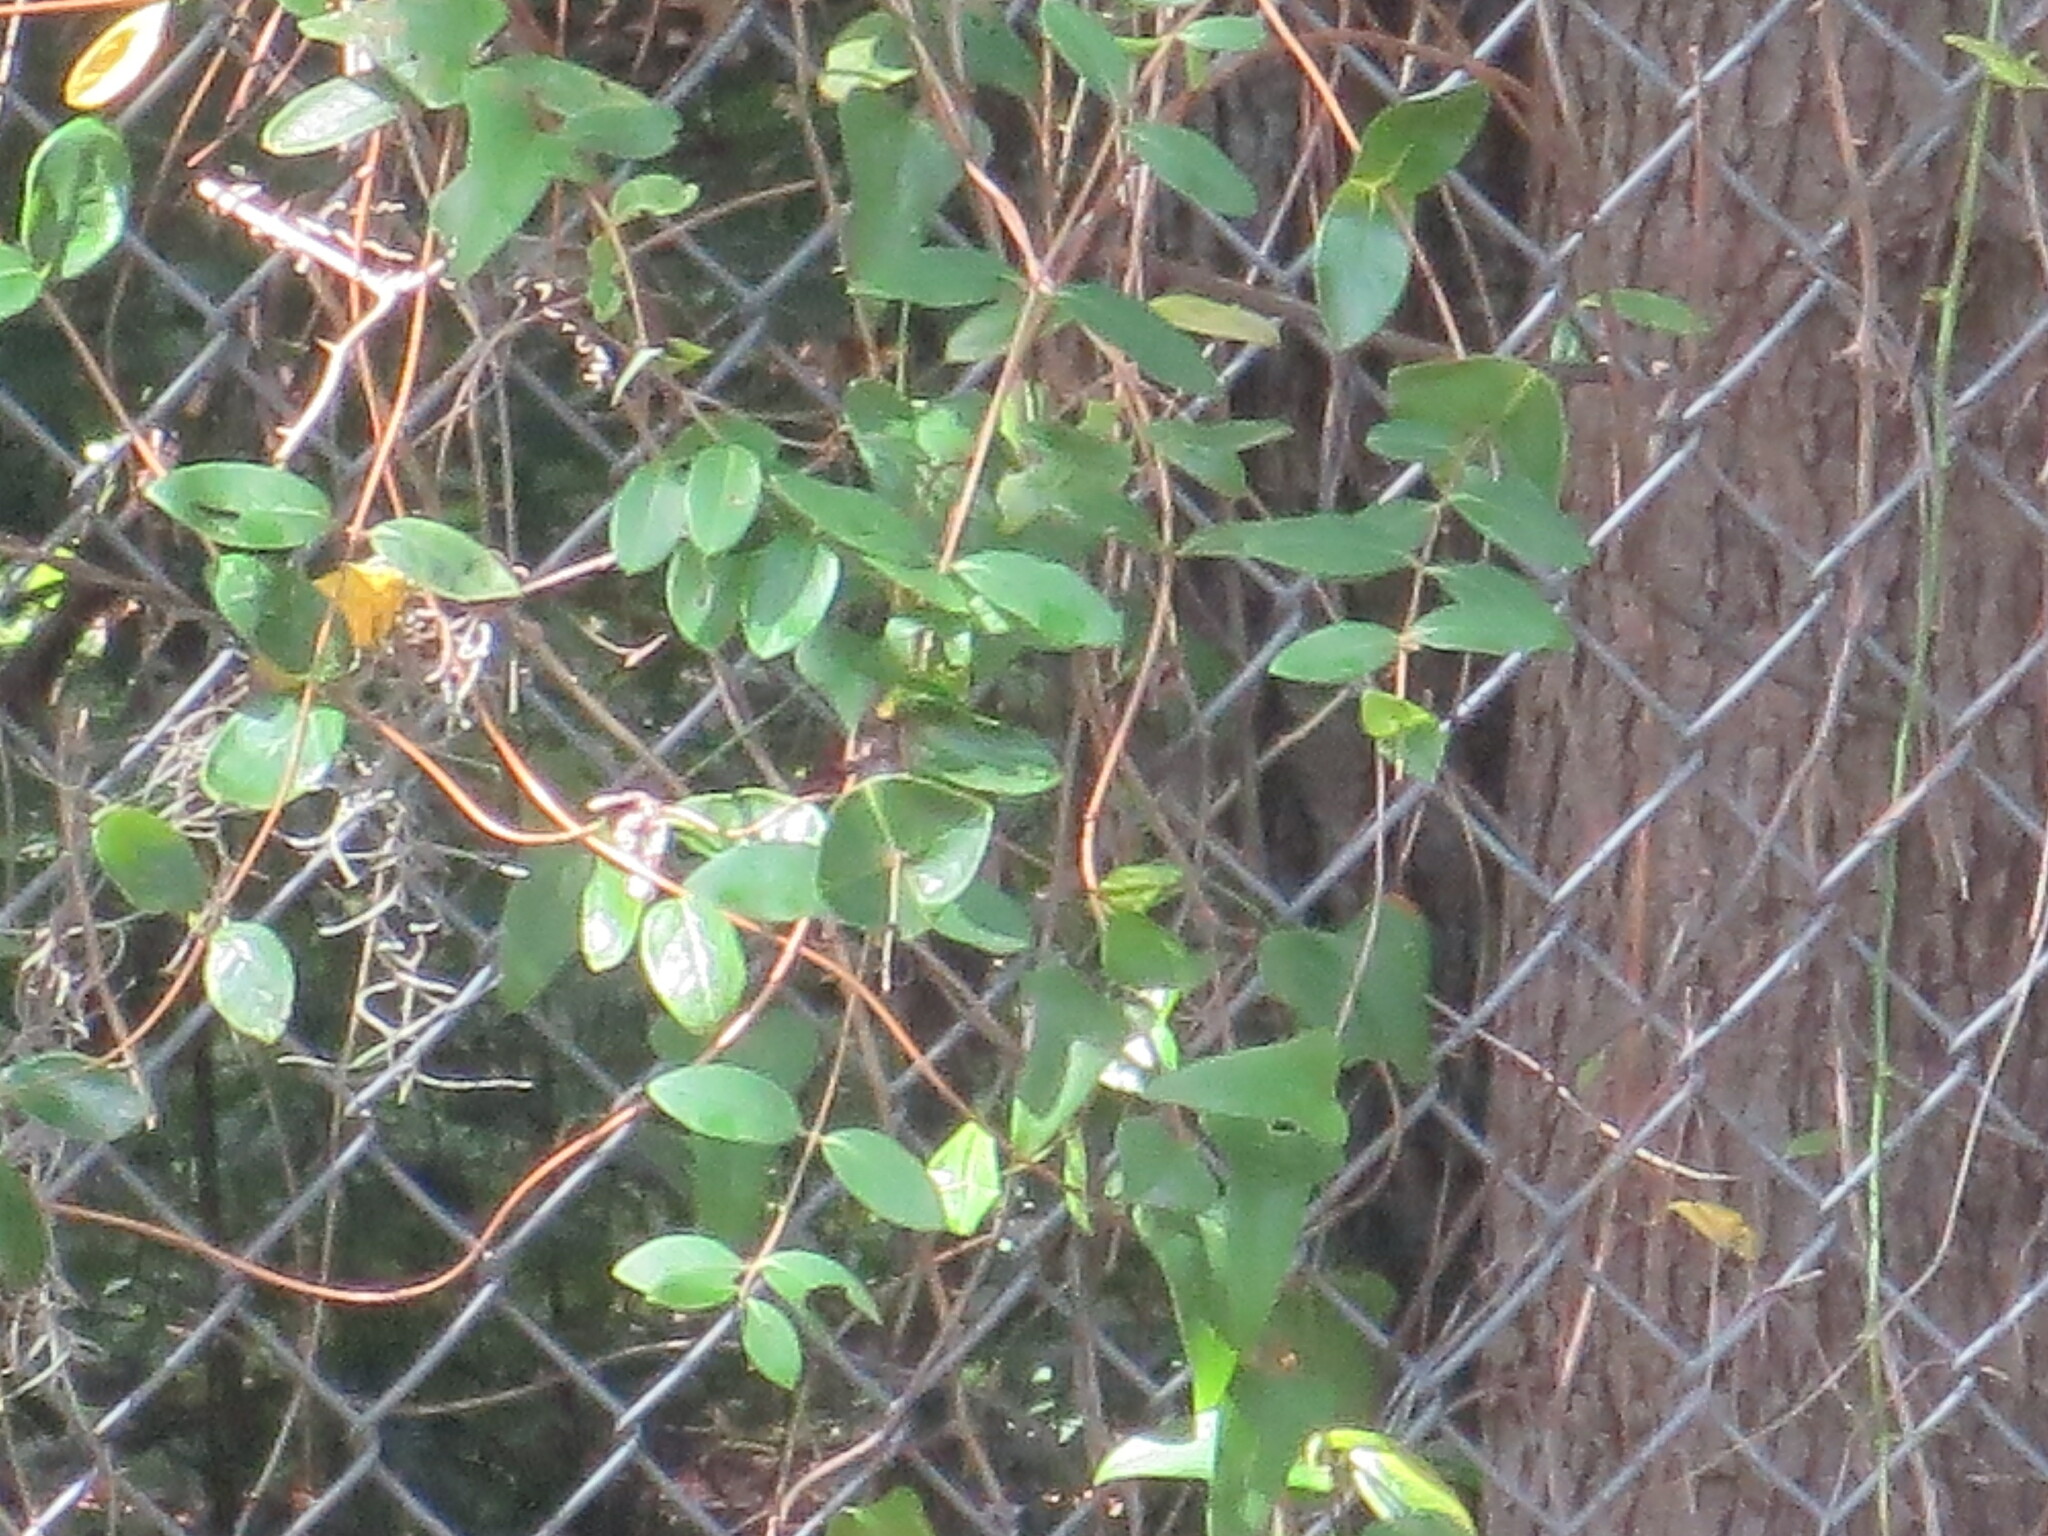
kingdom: Plantae
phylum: Tracheophyta
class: Magnoliopsida
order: Dipsacales
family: Caprifoliaceae
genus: Lonicera
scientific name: Lonicera sempervirens
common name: Coral honeysuckle
